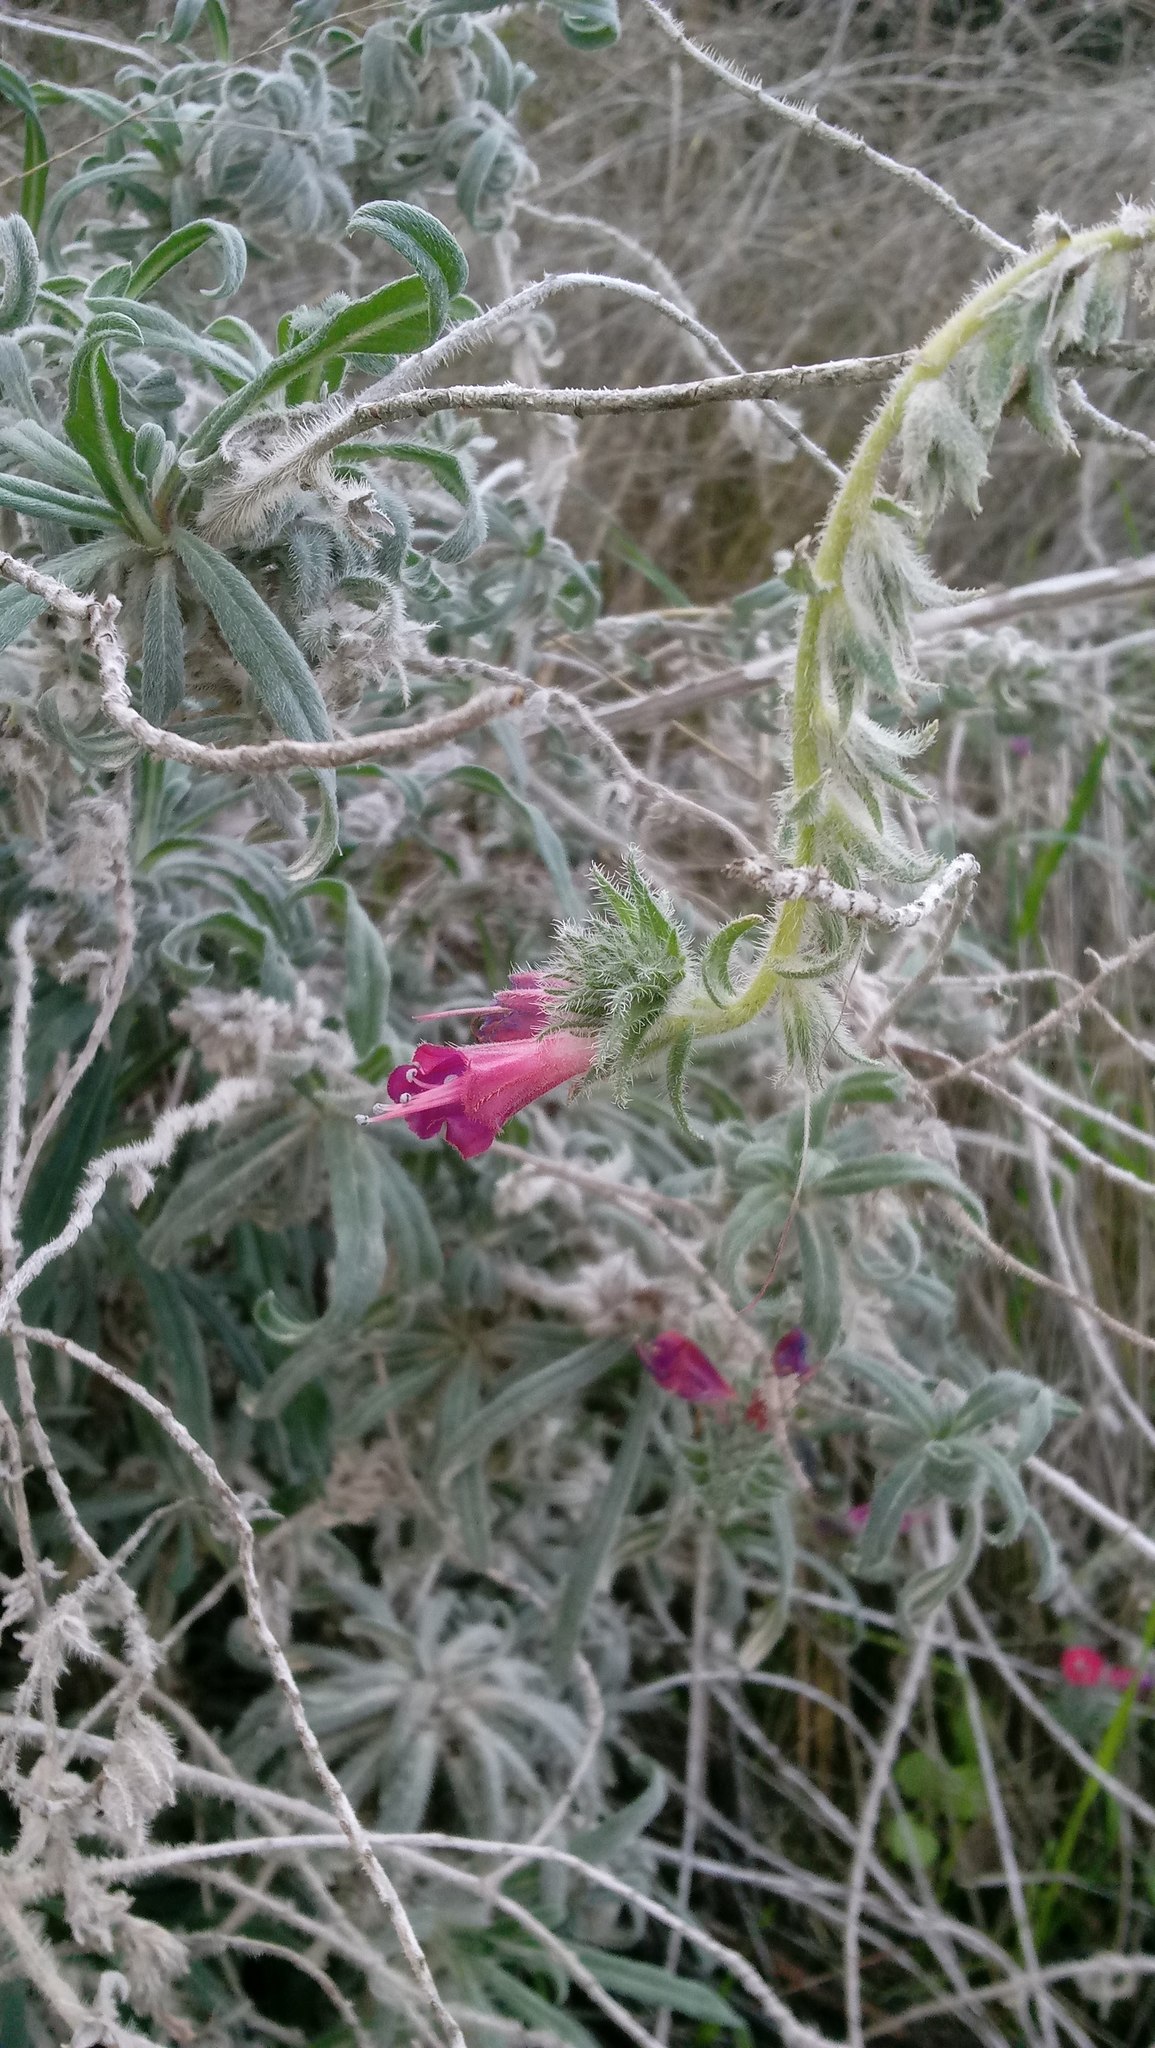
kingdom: Plantae
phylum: Tracheophyta
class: Magnoliopsida
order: Boraginales
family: Boraginaceae
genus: Echium
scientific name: Echium angustifolium
